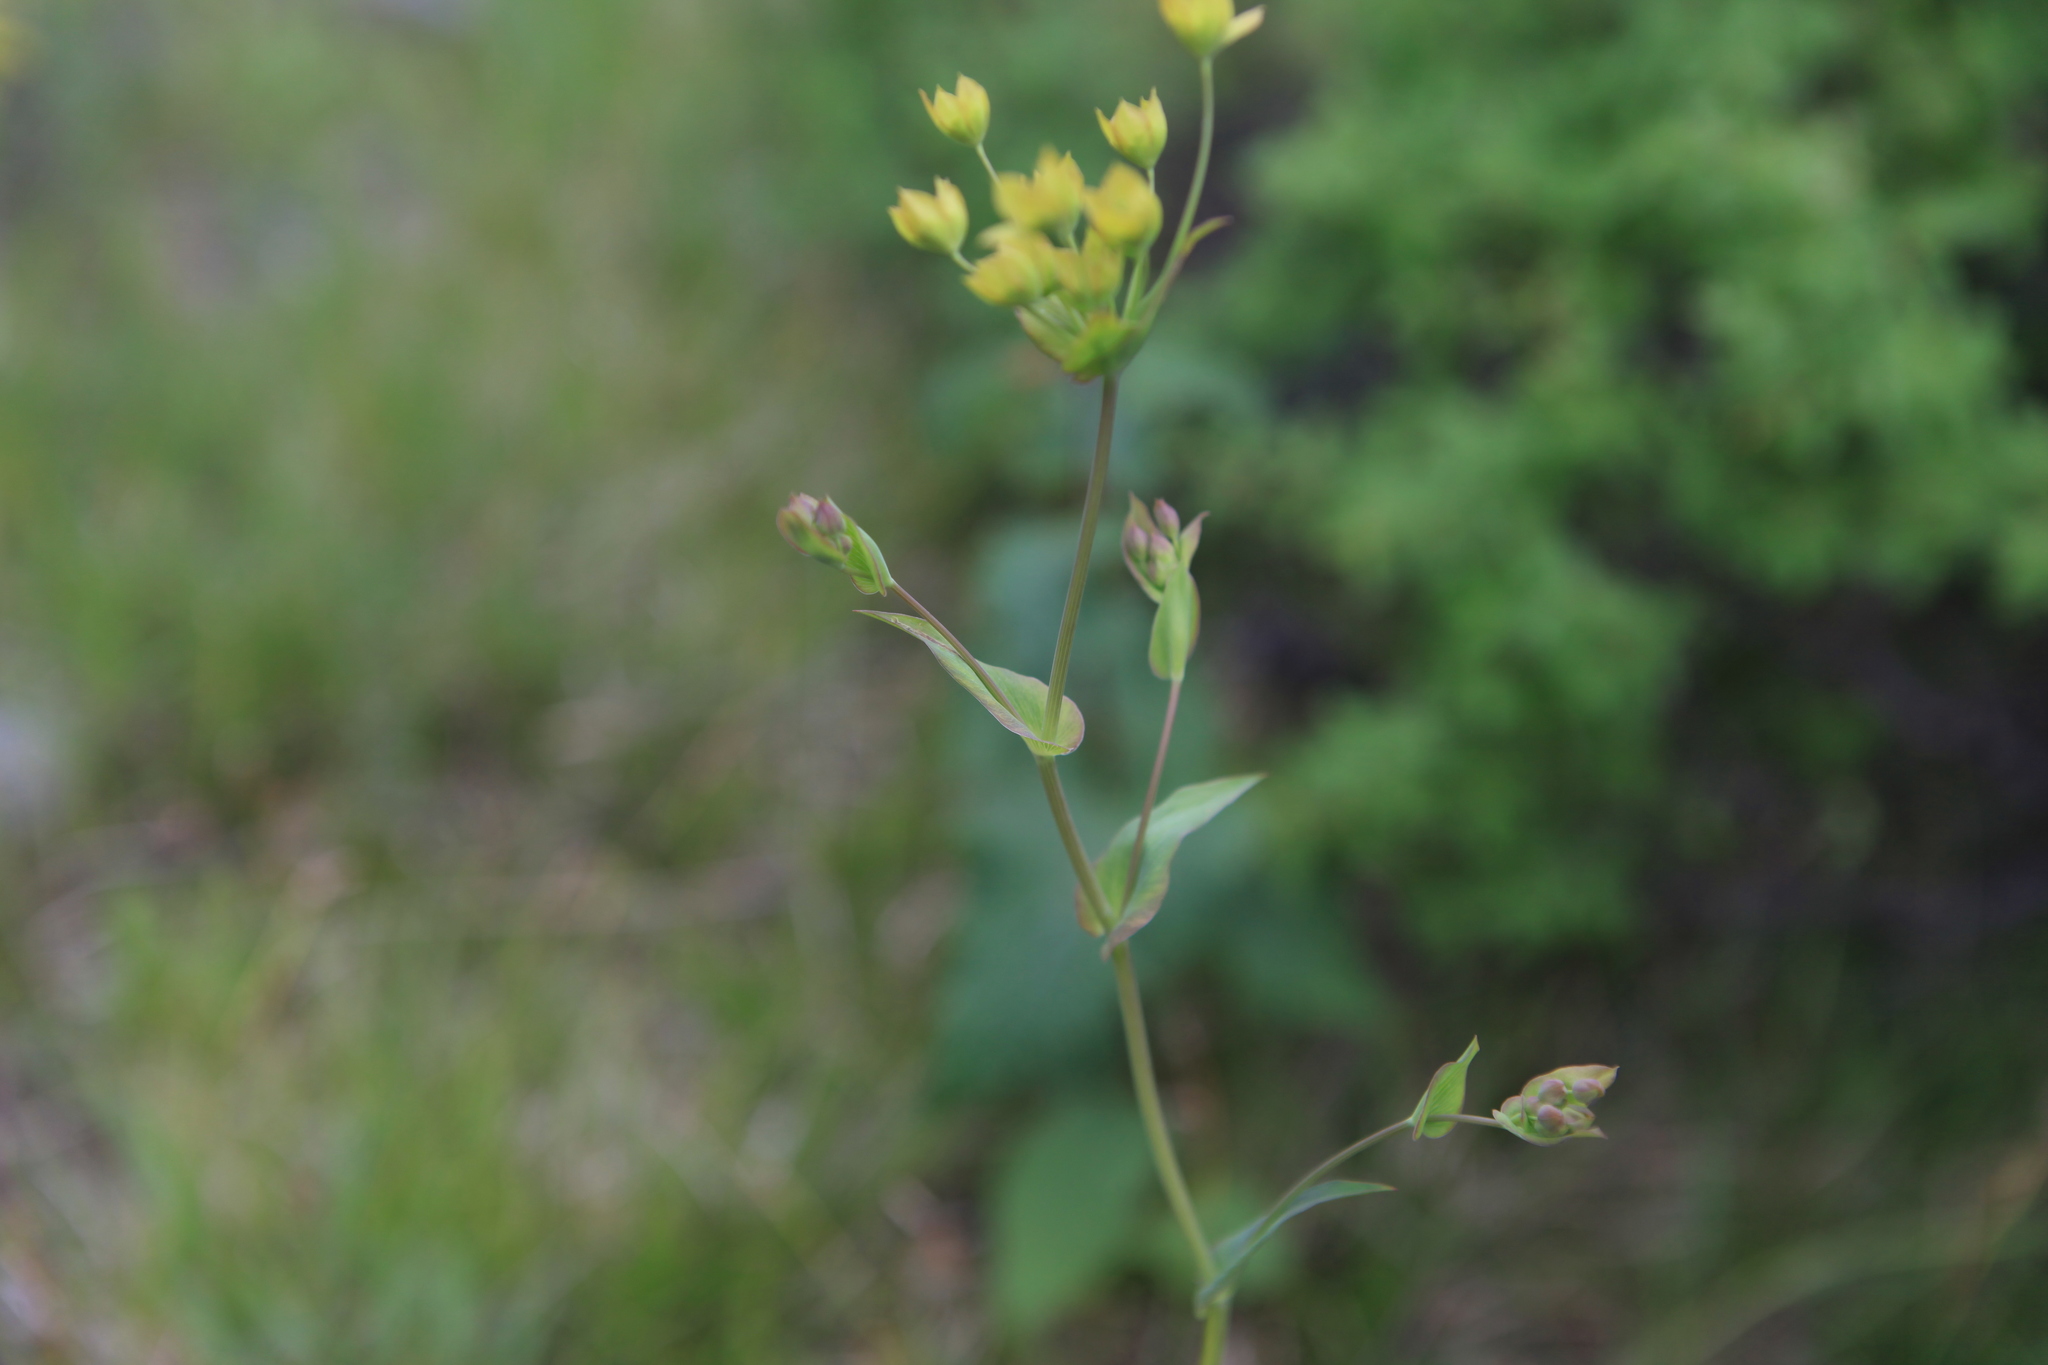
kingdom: Plantae
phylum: Tracheophyta
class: Magnoliopsida
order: Apiales
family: Apiaceae
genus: Bupleurum
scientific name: Bupleurum multinerve
